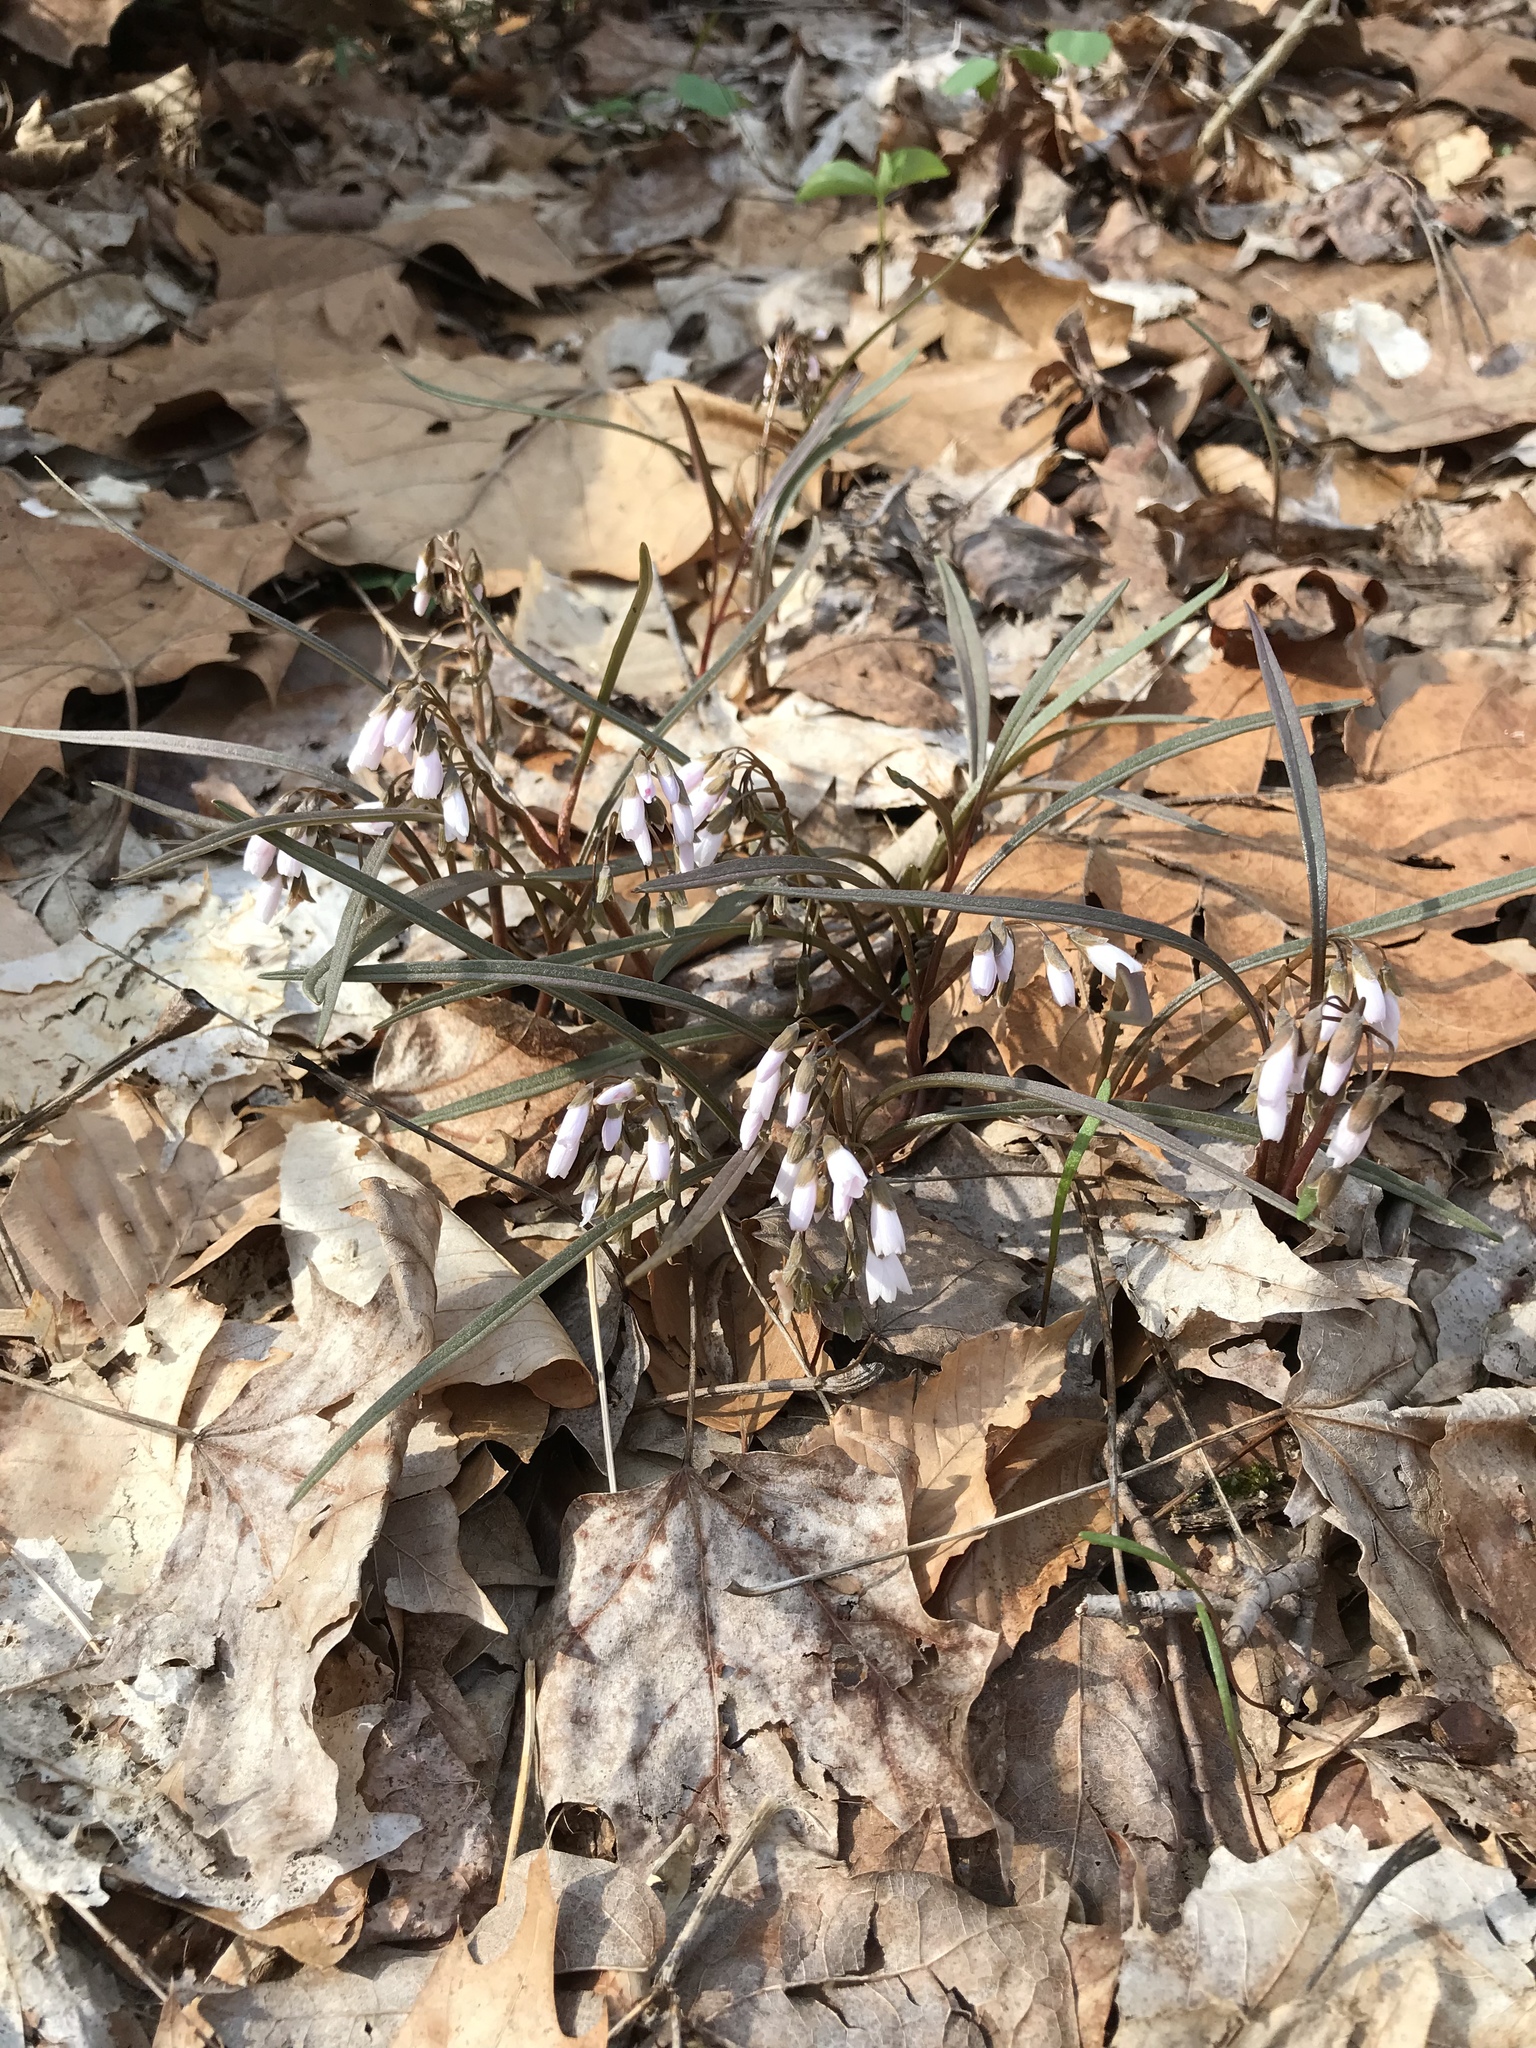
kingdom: Plantae
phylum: Tracheophyta
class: Magnoliopsida
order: Caryophyllales
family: Montiaceae
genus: Claytonia
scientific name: Claytonia virginica
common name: Virginia springbeauty
